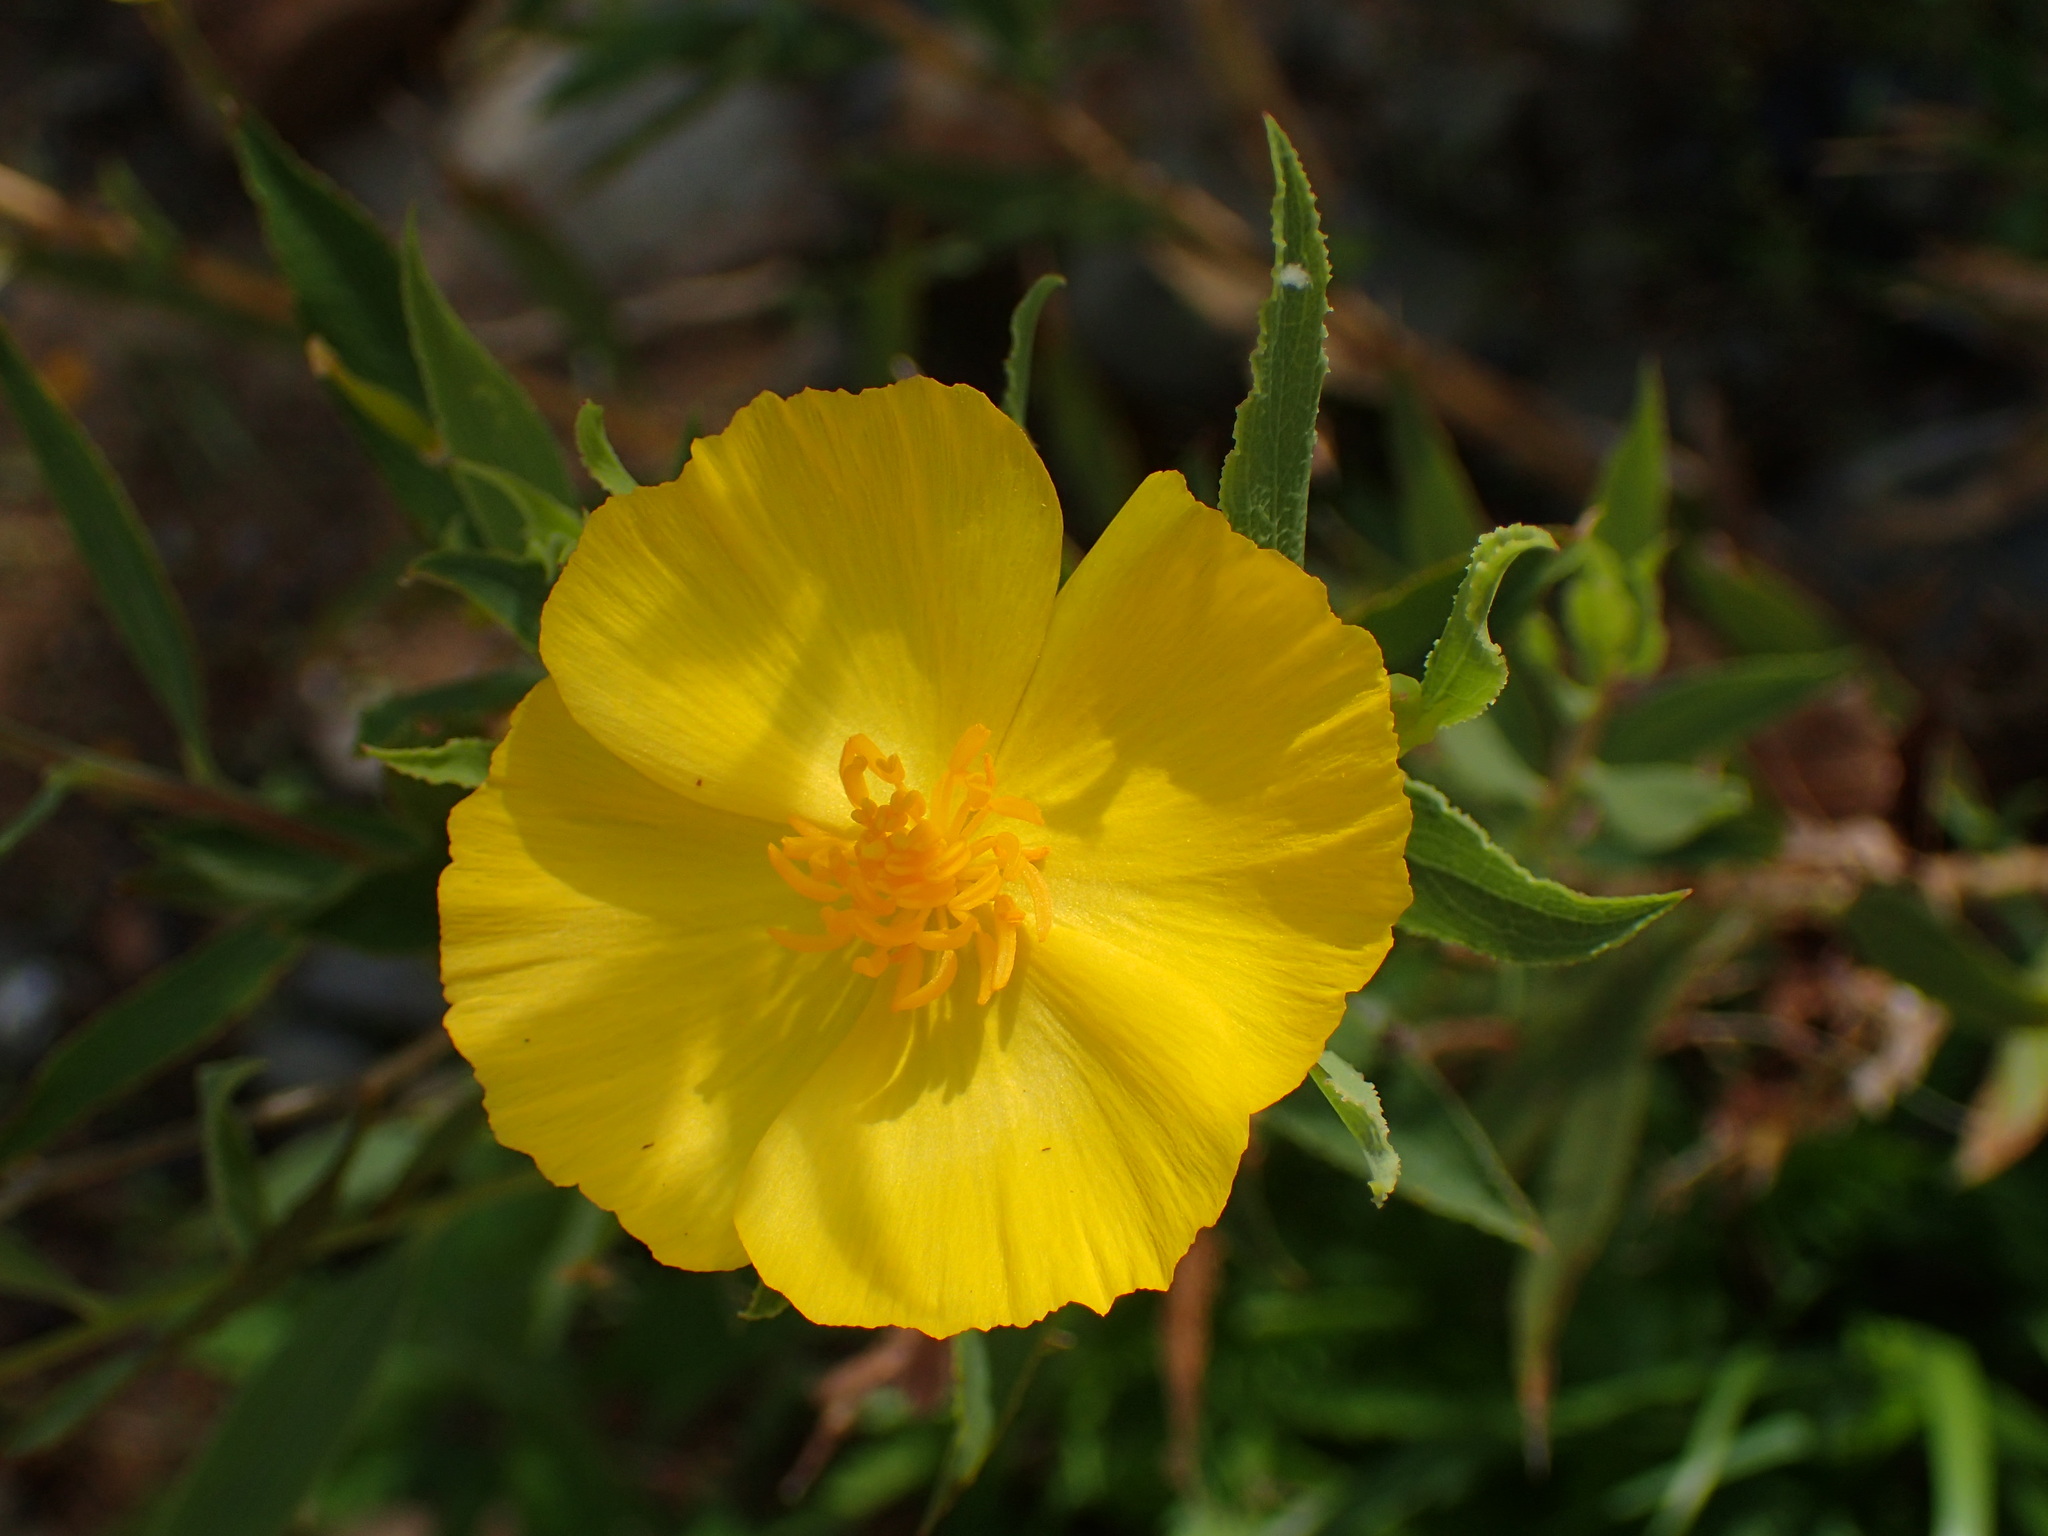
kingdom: Plantae
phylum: Tracheophyta
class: Magnoliopsida
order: Ranunculales
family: Papaveraceae
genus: Dendromecon
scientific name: Dendromecon rigida
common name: Tree poppy
